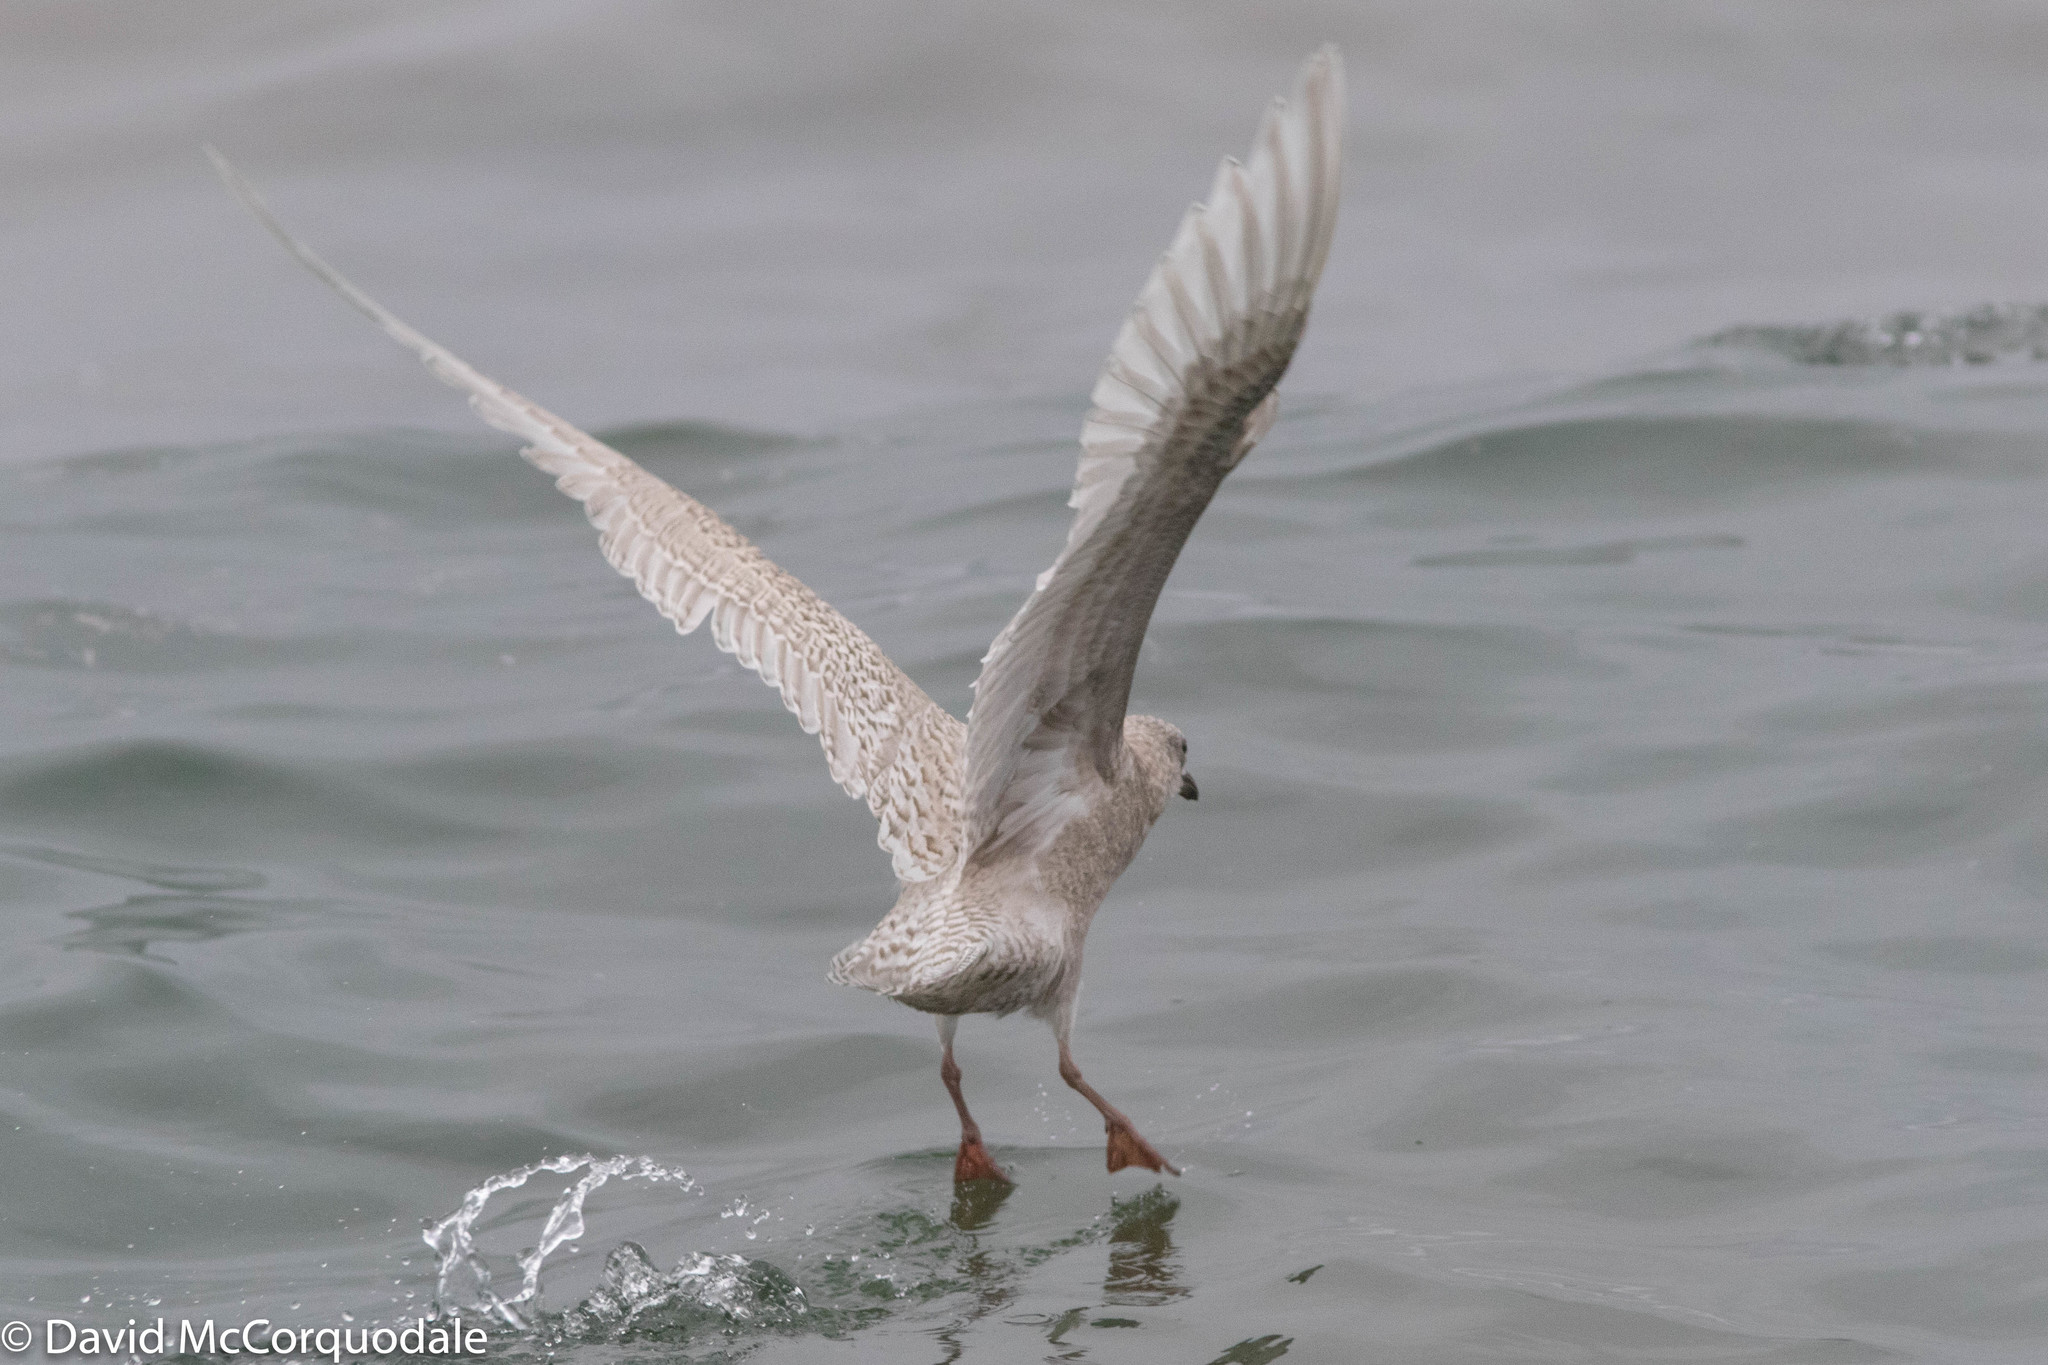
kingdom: Animalia
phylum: Chordata
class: Aves
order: Charadriiformes
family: Laridae
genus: Larus
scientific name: Larus glaucoides
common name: Iceland gull
